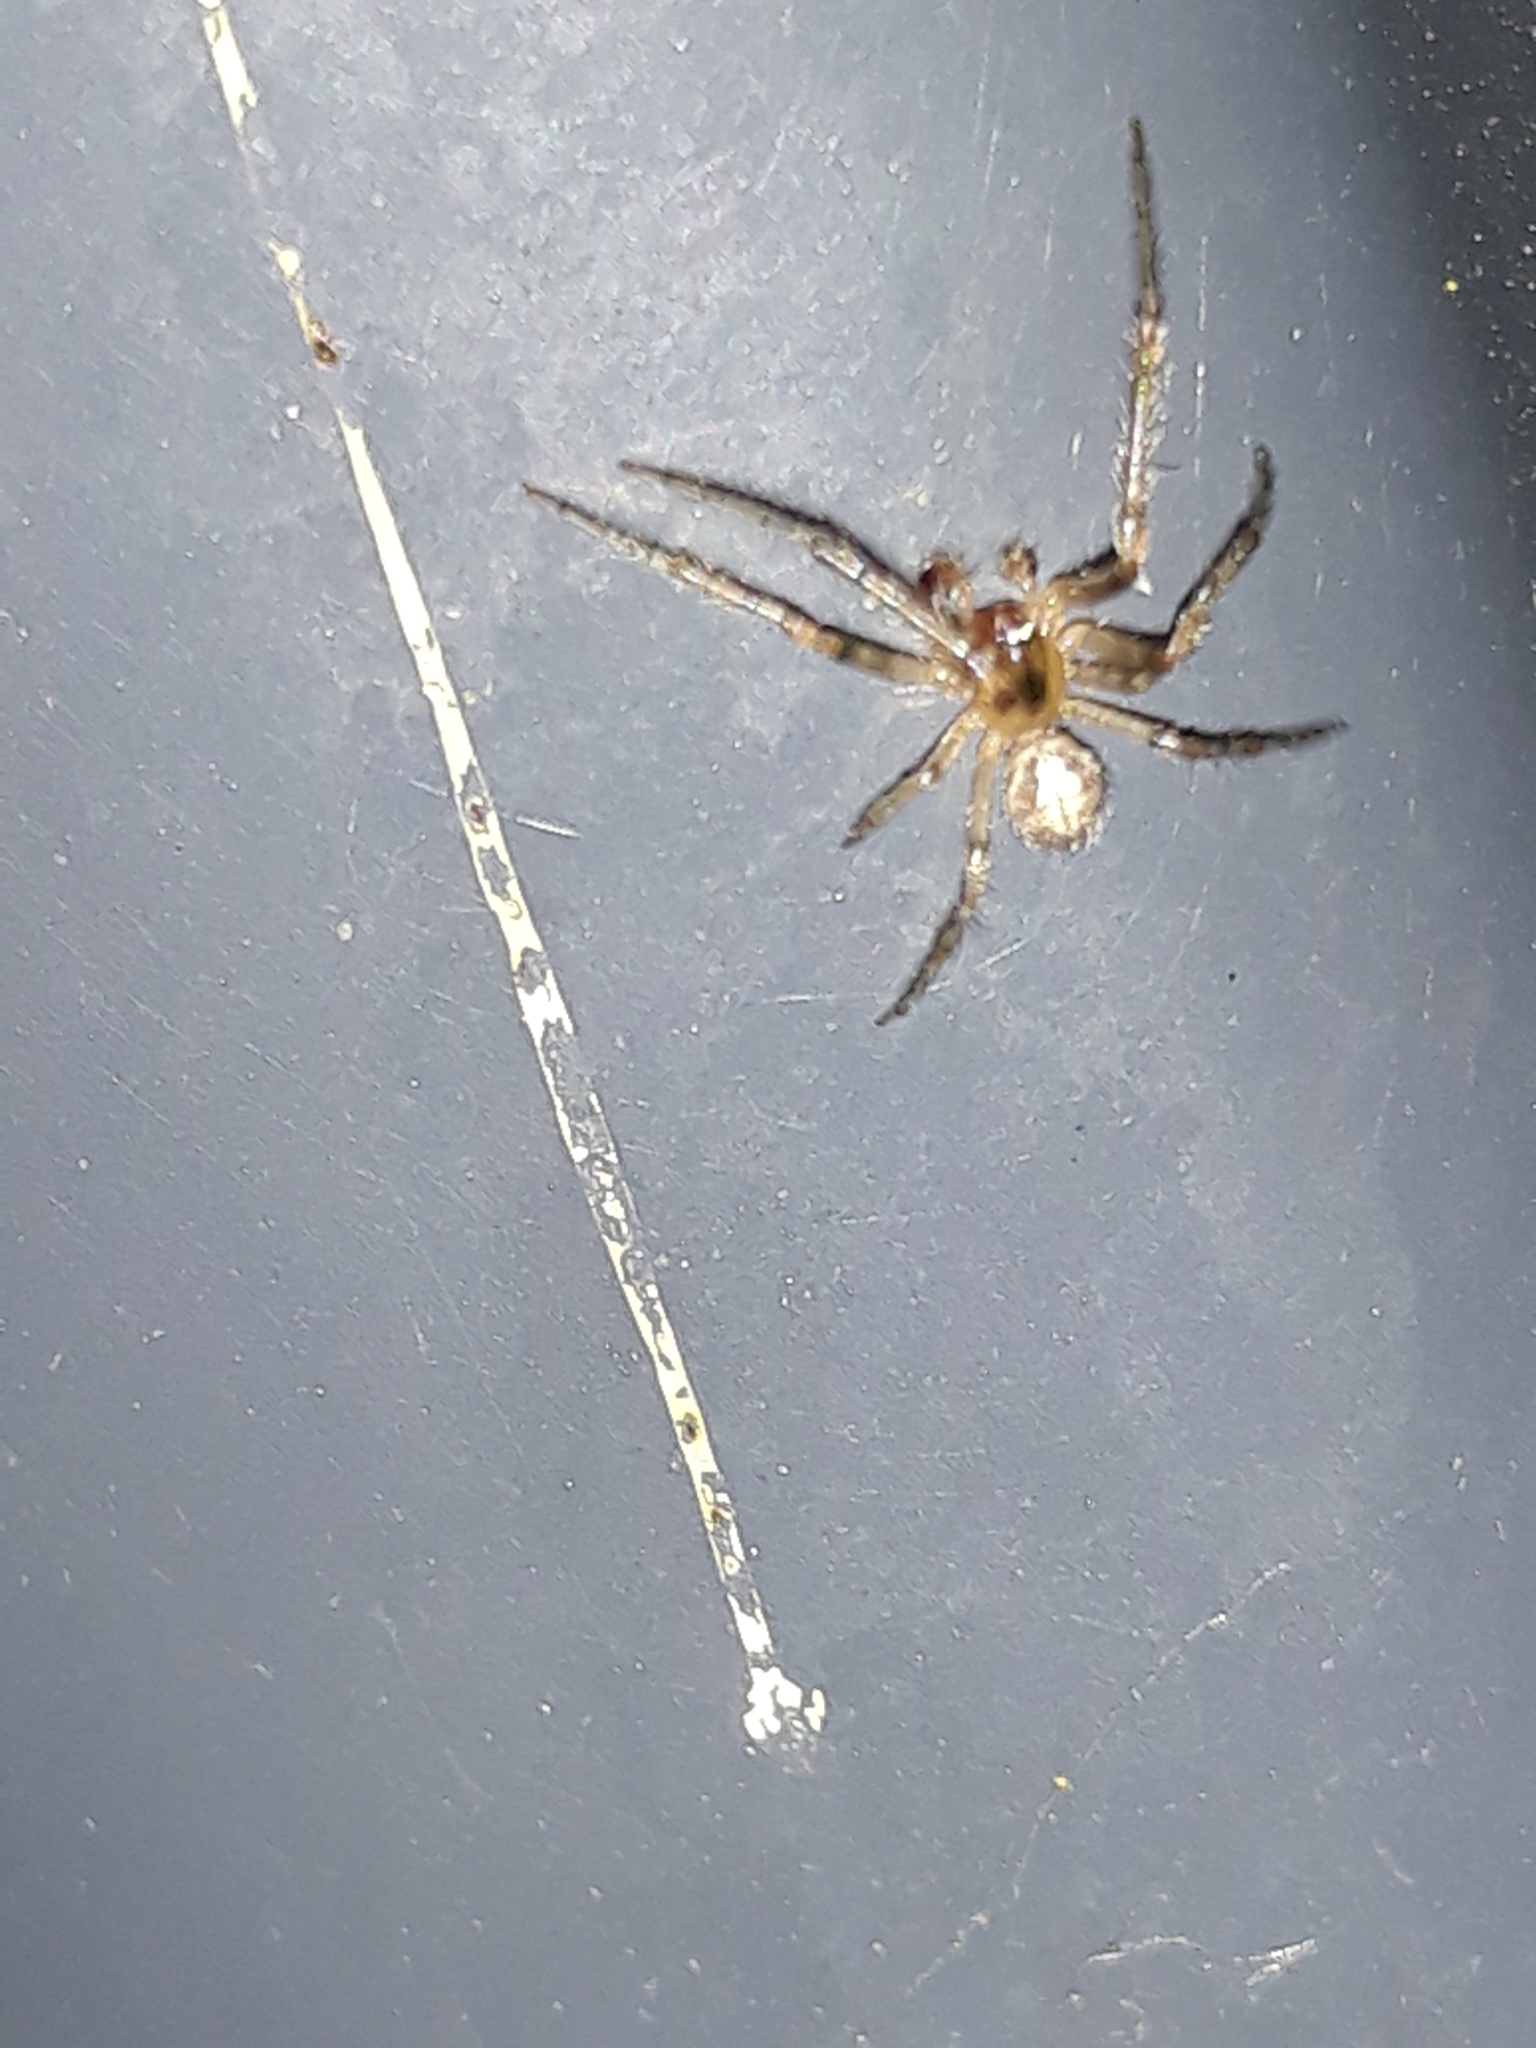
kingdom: Animalia
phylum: Arthropoda
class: Arachnida
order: Araneae
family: Araneidae
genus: Zygiella
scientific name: Zygiella x-notata
